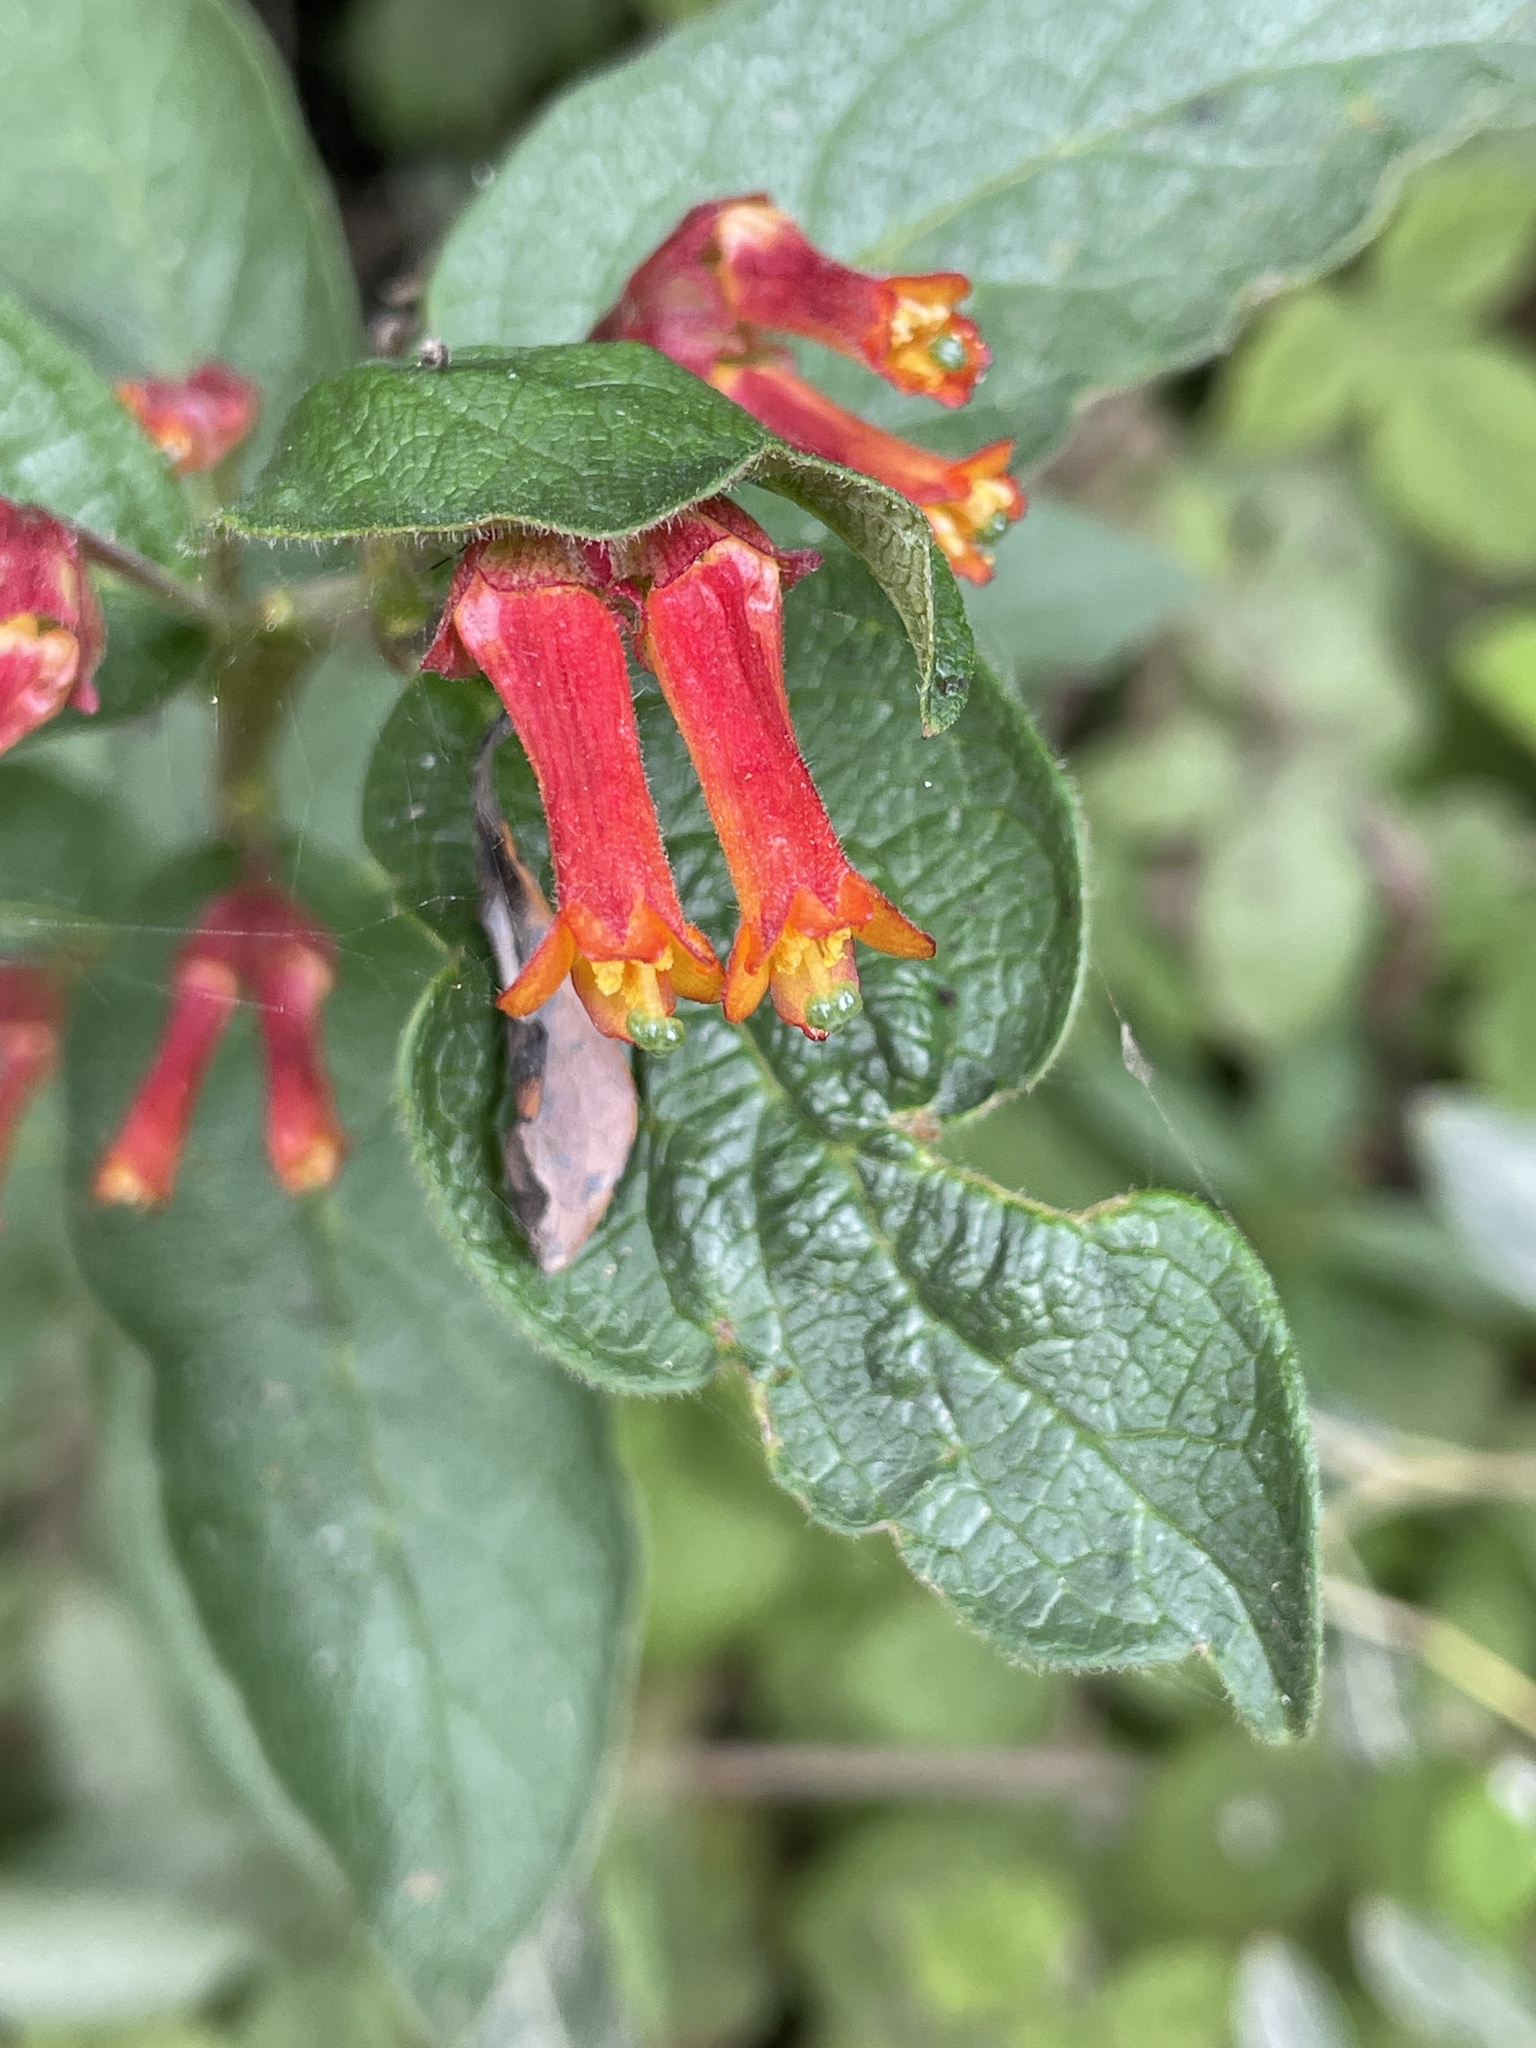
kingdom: Plantae
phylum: Tracheophyta
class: Magnoliopsida
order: Dipsacales
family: Caprifoliaceae
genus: Lonicera
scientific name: Lonicera involucrata
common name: Californian honeysuckle
